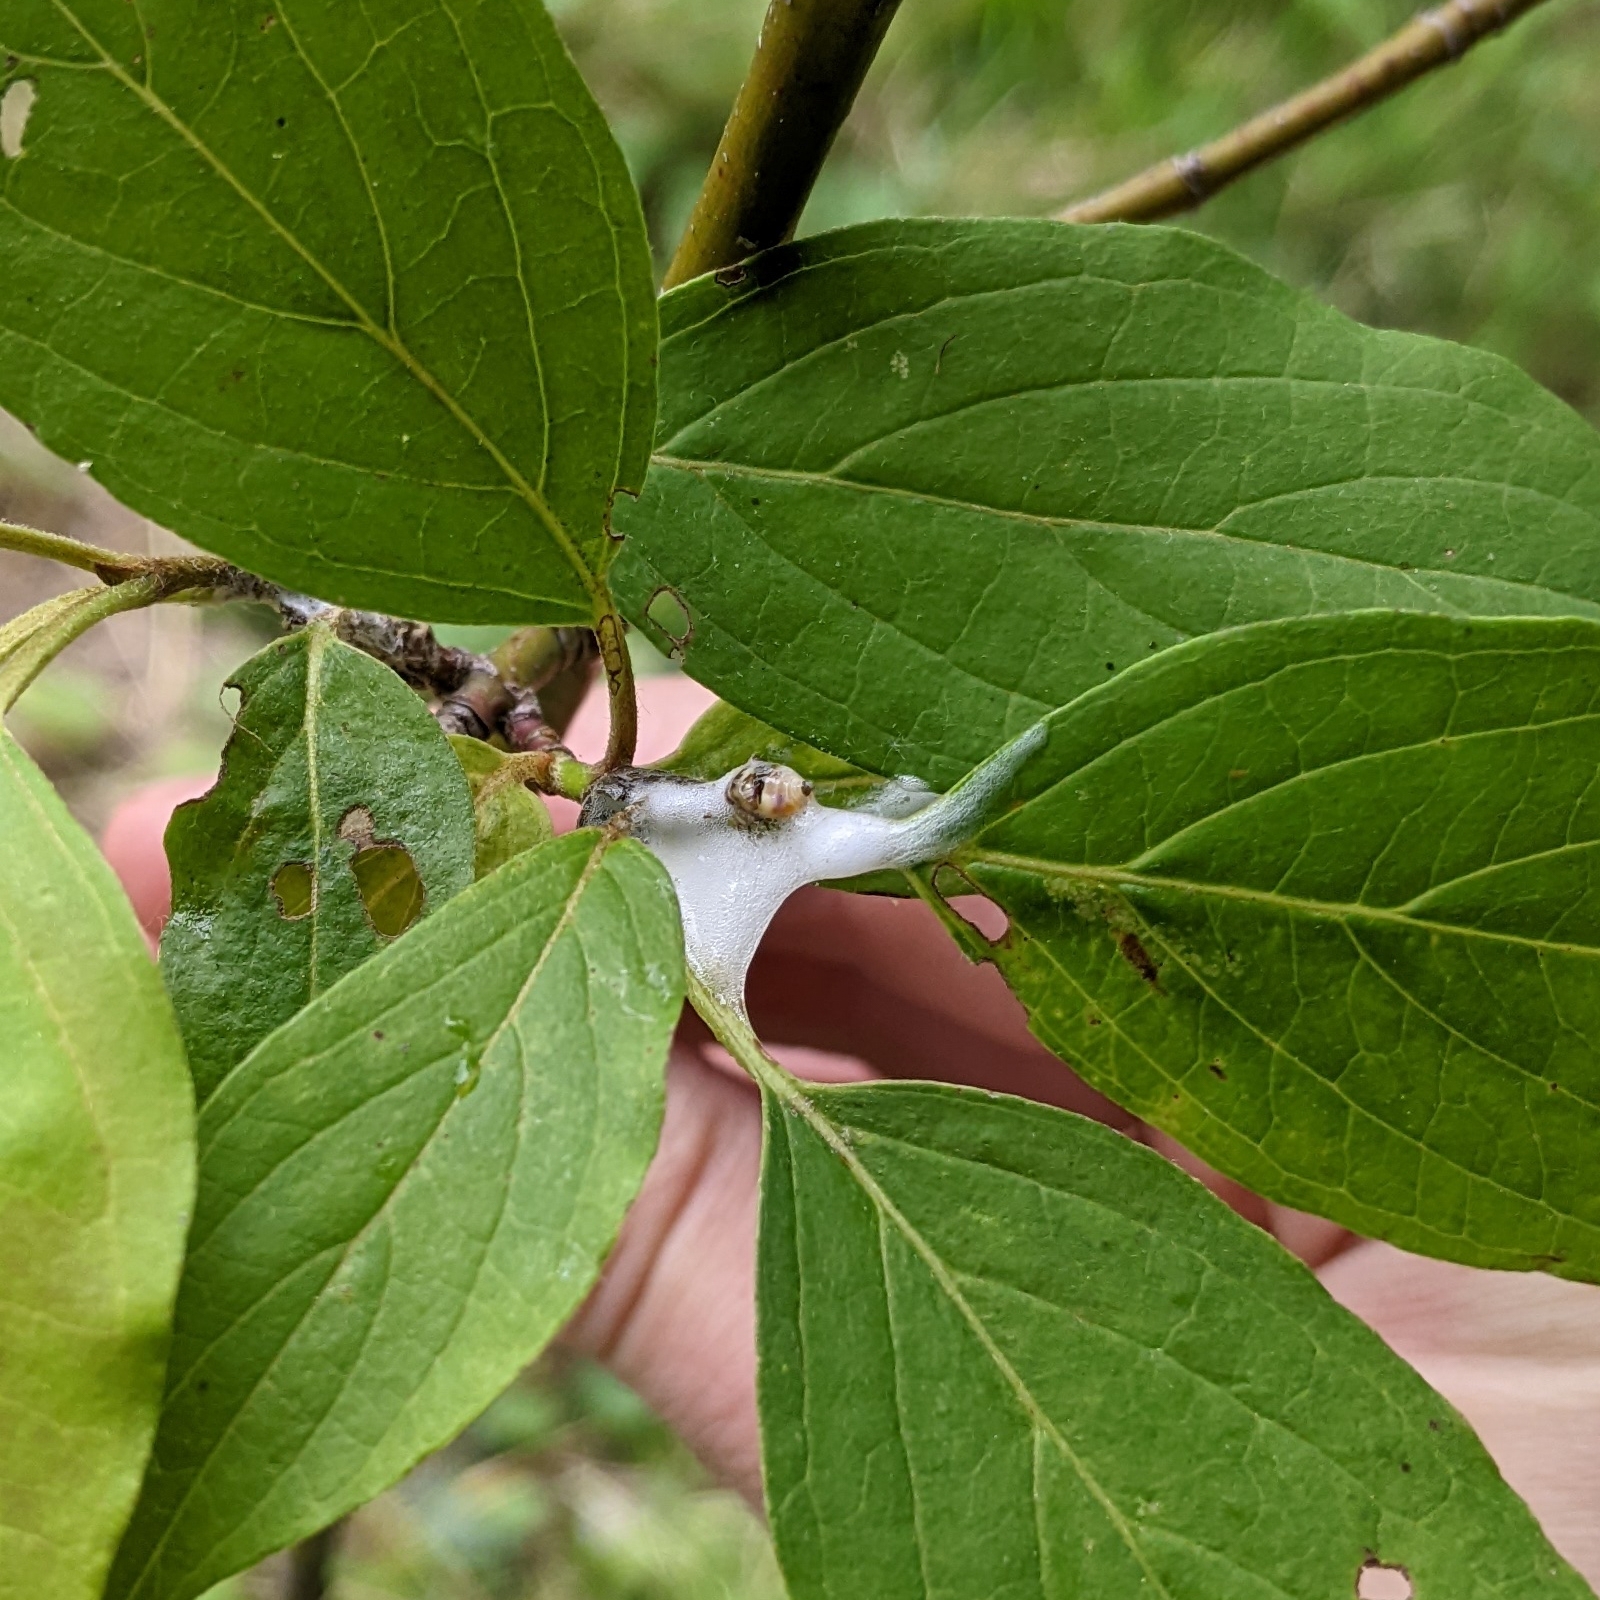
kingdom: Animalia
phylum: Arthropoda
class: Insecta
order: Hemiptera
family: Clastopteridae
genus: Clastoptera
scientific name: Clastoptera proteus
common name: Dogwood spittlebug
